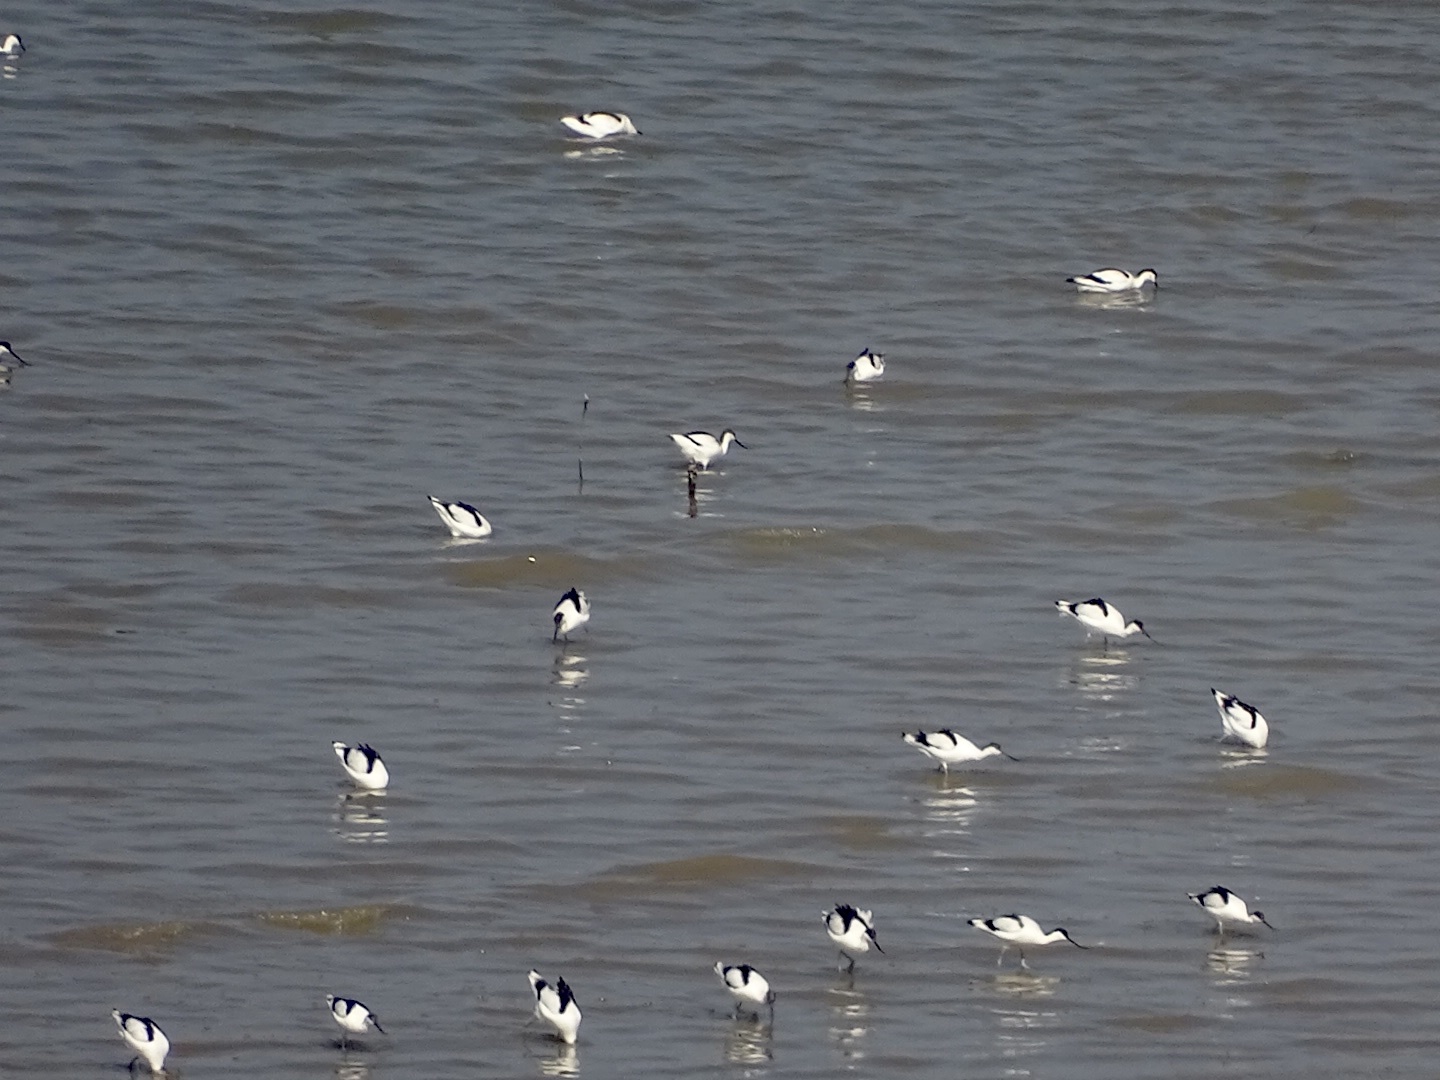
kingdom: Animalia
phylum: Chordata
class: Aves
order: Charadriiformes
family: Recurvirostridae
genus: Recurvirostra
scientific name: Recurvirostra avosetta
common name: Pied avocet
